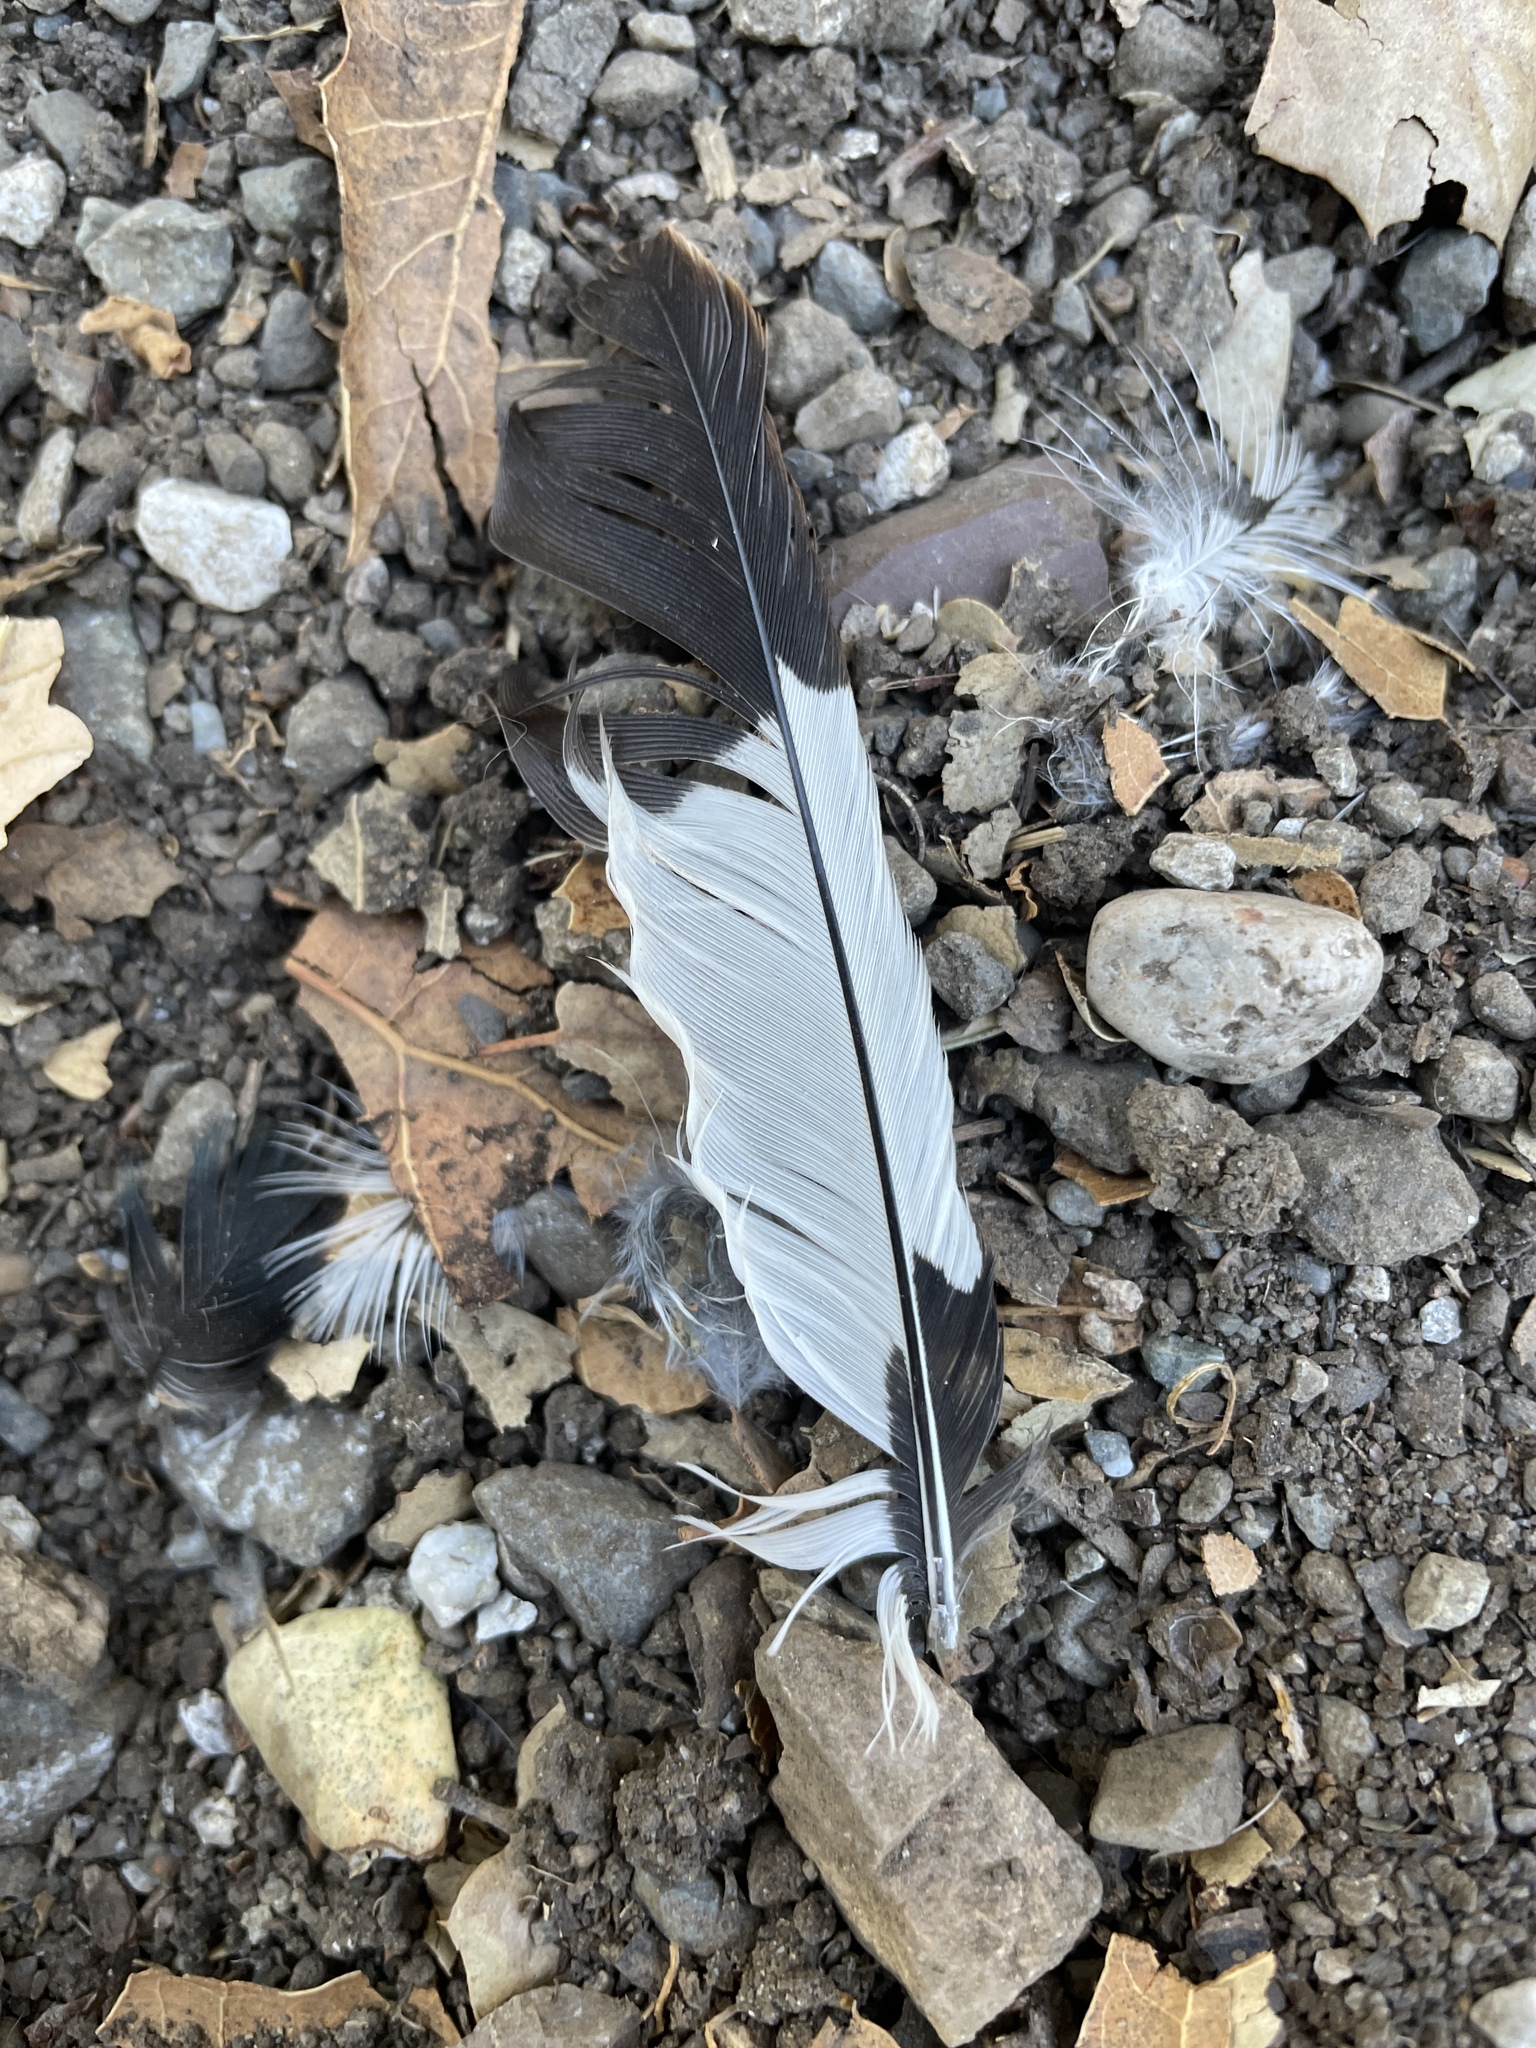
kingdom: Animalia
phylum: Chordata
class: Aves
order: Piciformes
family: Picidae
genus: Melanerpes
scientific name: Melanerpes formicivorus
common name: Acorn woodpecker
